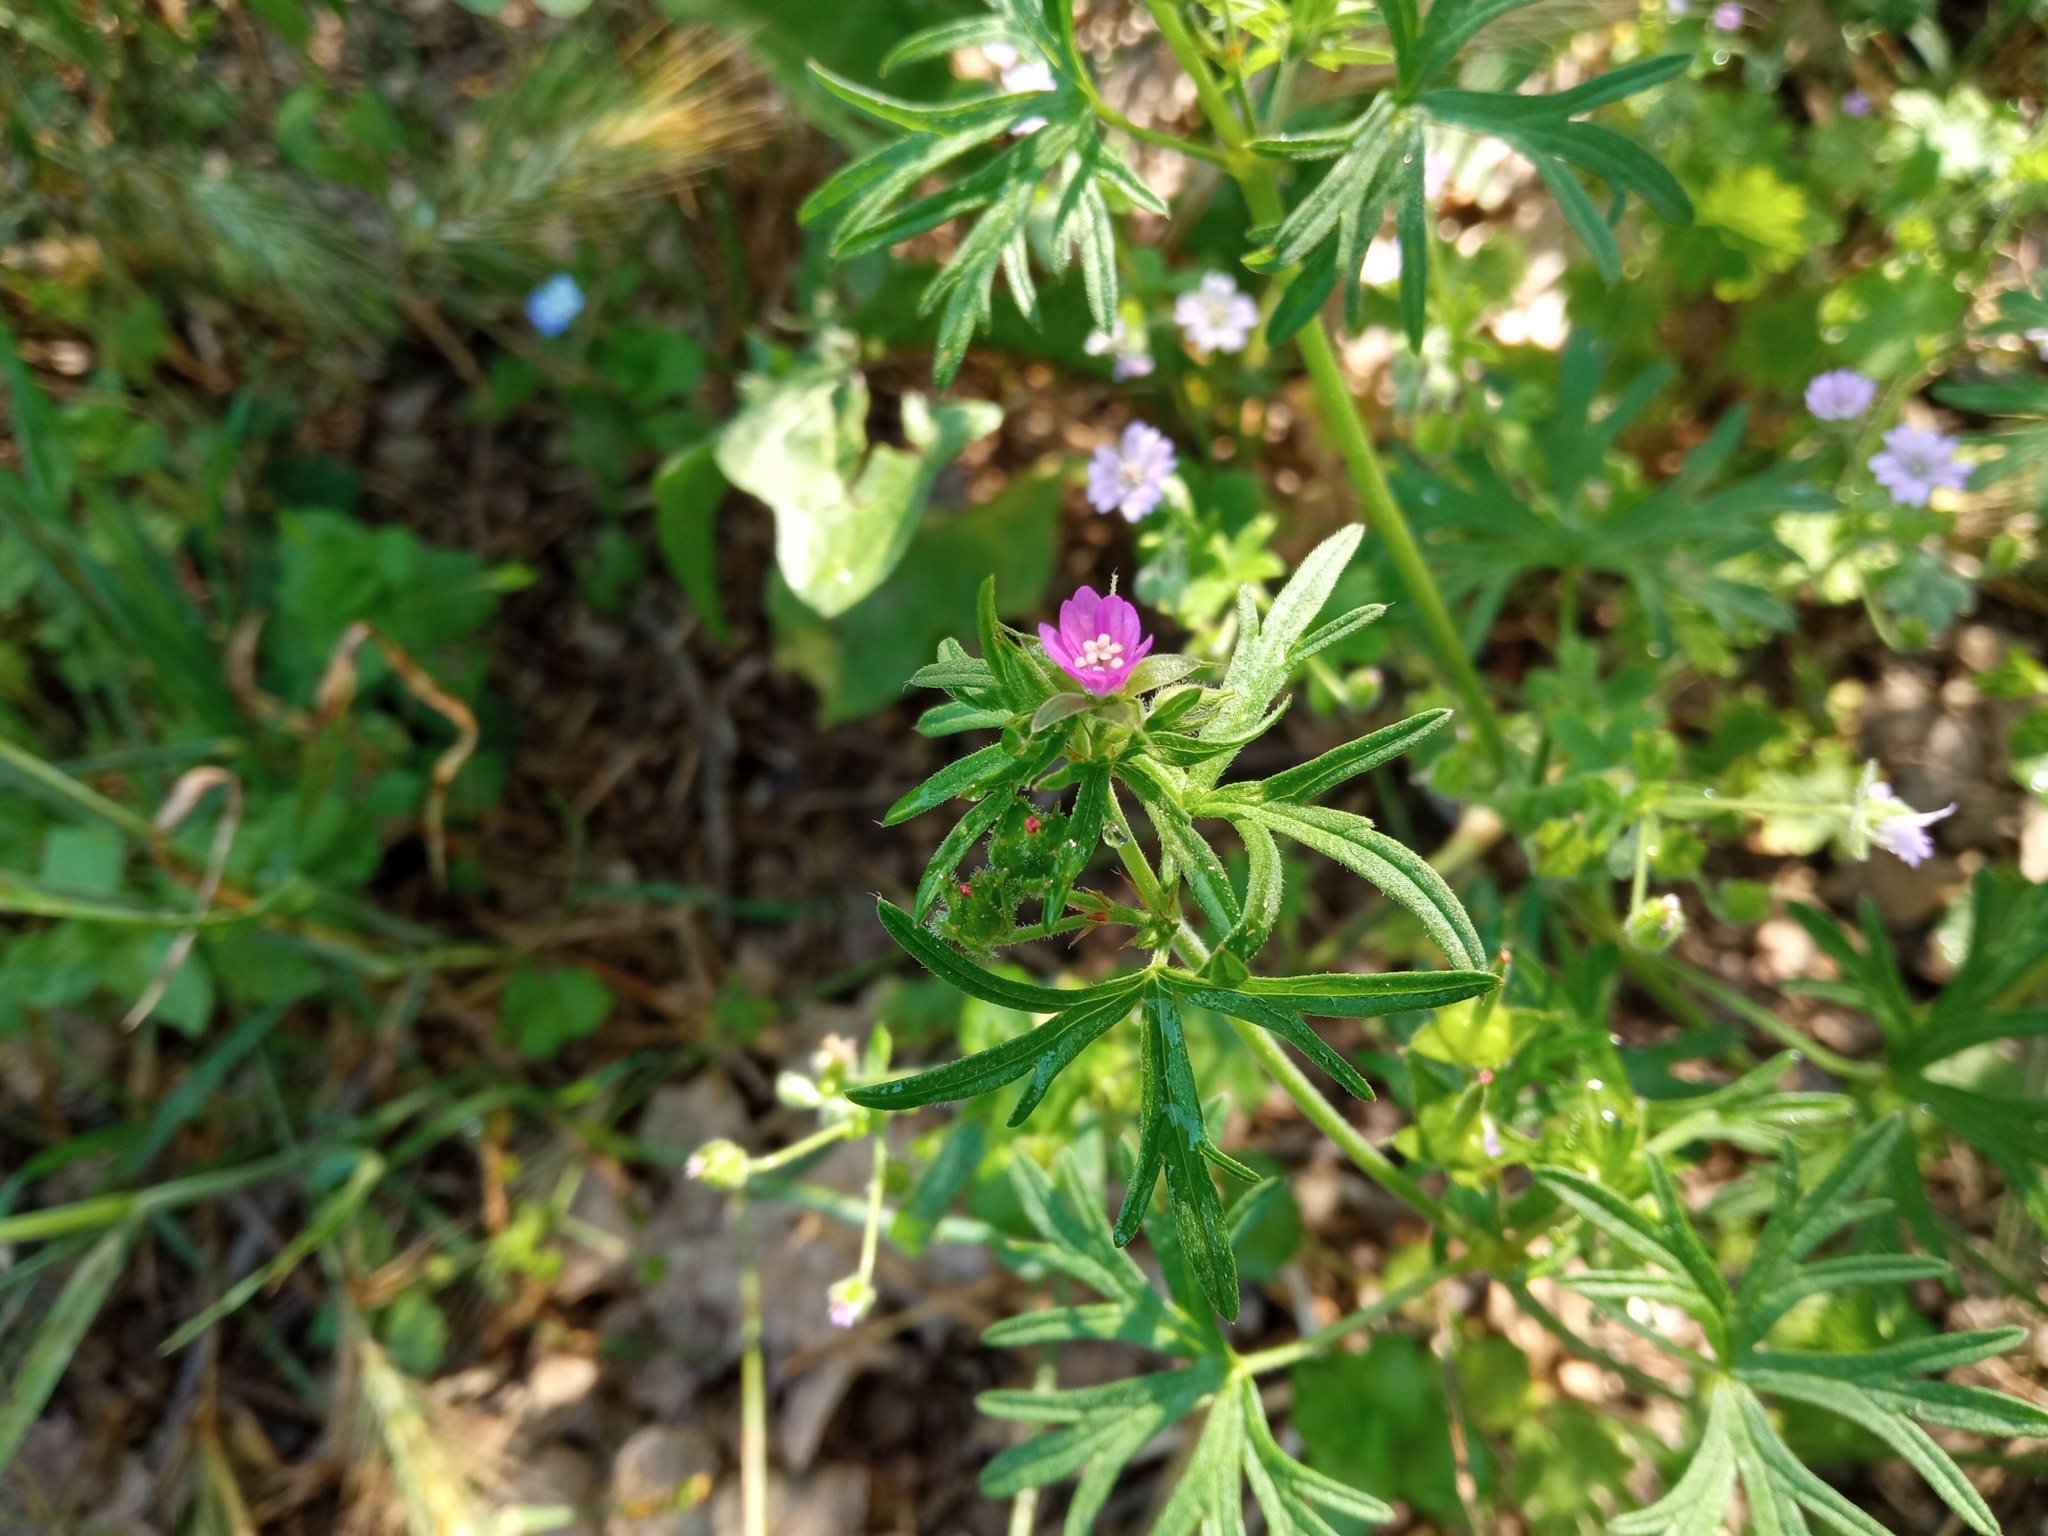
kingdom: Plantae
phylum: Tracheophyta
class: Magnoliopsida
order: Geraniales
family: Geraniaceae
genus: Geranium
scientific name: Geranium dissectum
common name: Cut-leaved crane's-bill
